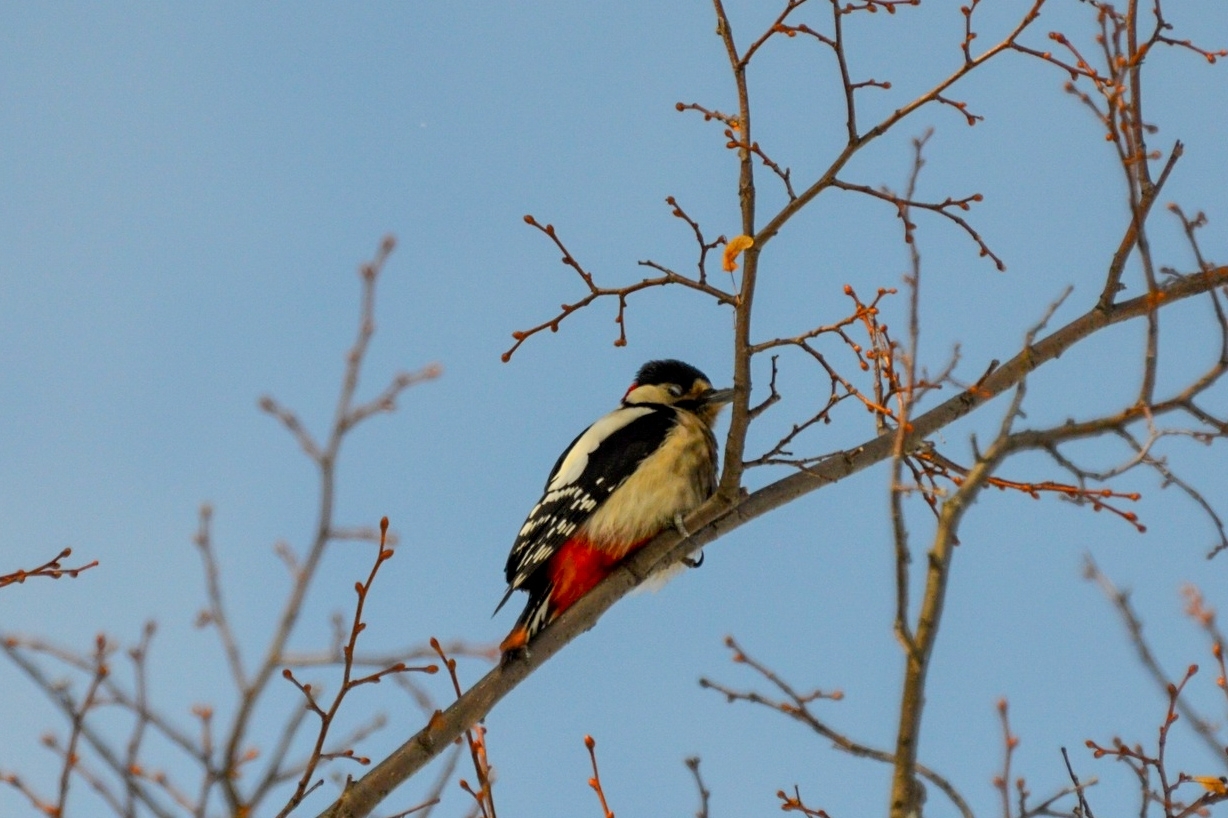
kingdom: Animalia
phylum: Chordata
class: Aves
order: Piciformes
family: Picidae
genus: Dendrocopos
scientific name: Dendrocopos major
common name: Great spotted woodpecker
